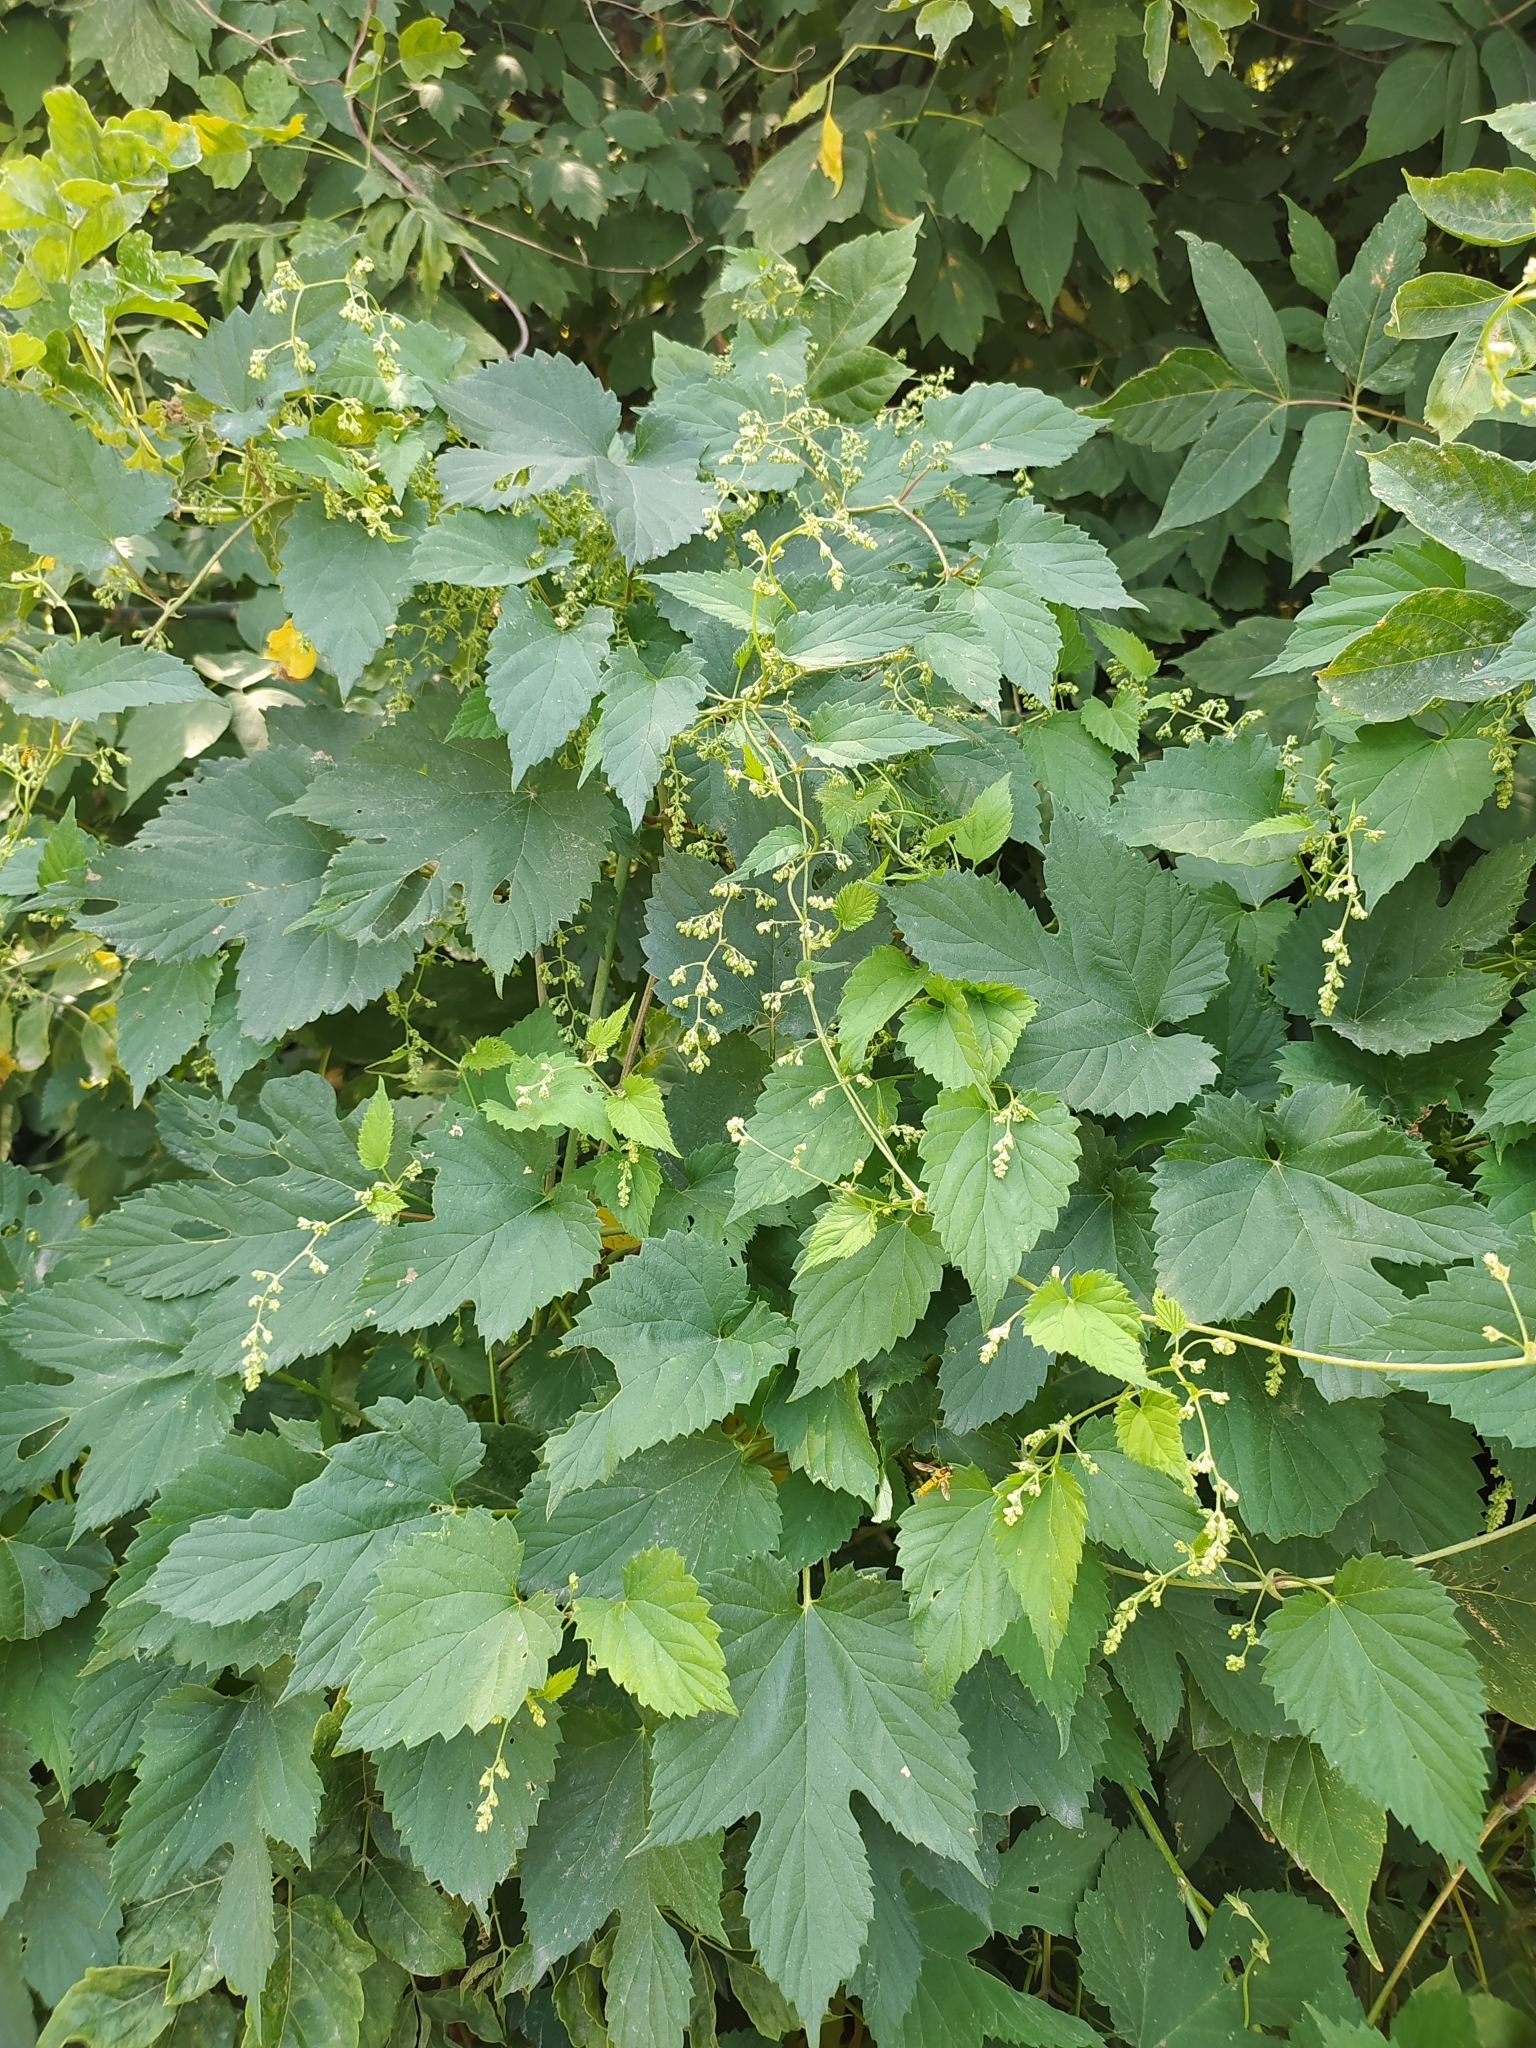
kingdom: Plantae
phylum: Tracheophyta
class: Magnoliopsida
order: Rosales
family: Cannabaceae
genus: Humulus
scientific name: Humulus lupulus
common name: Hop
